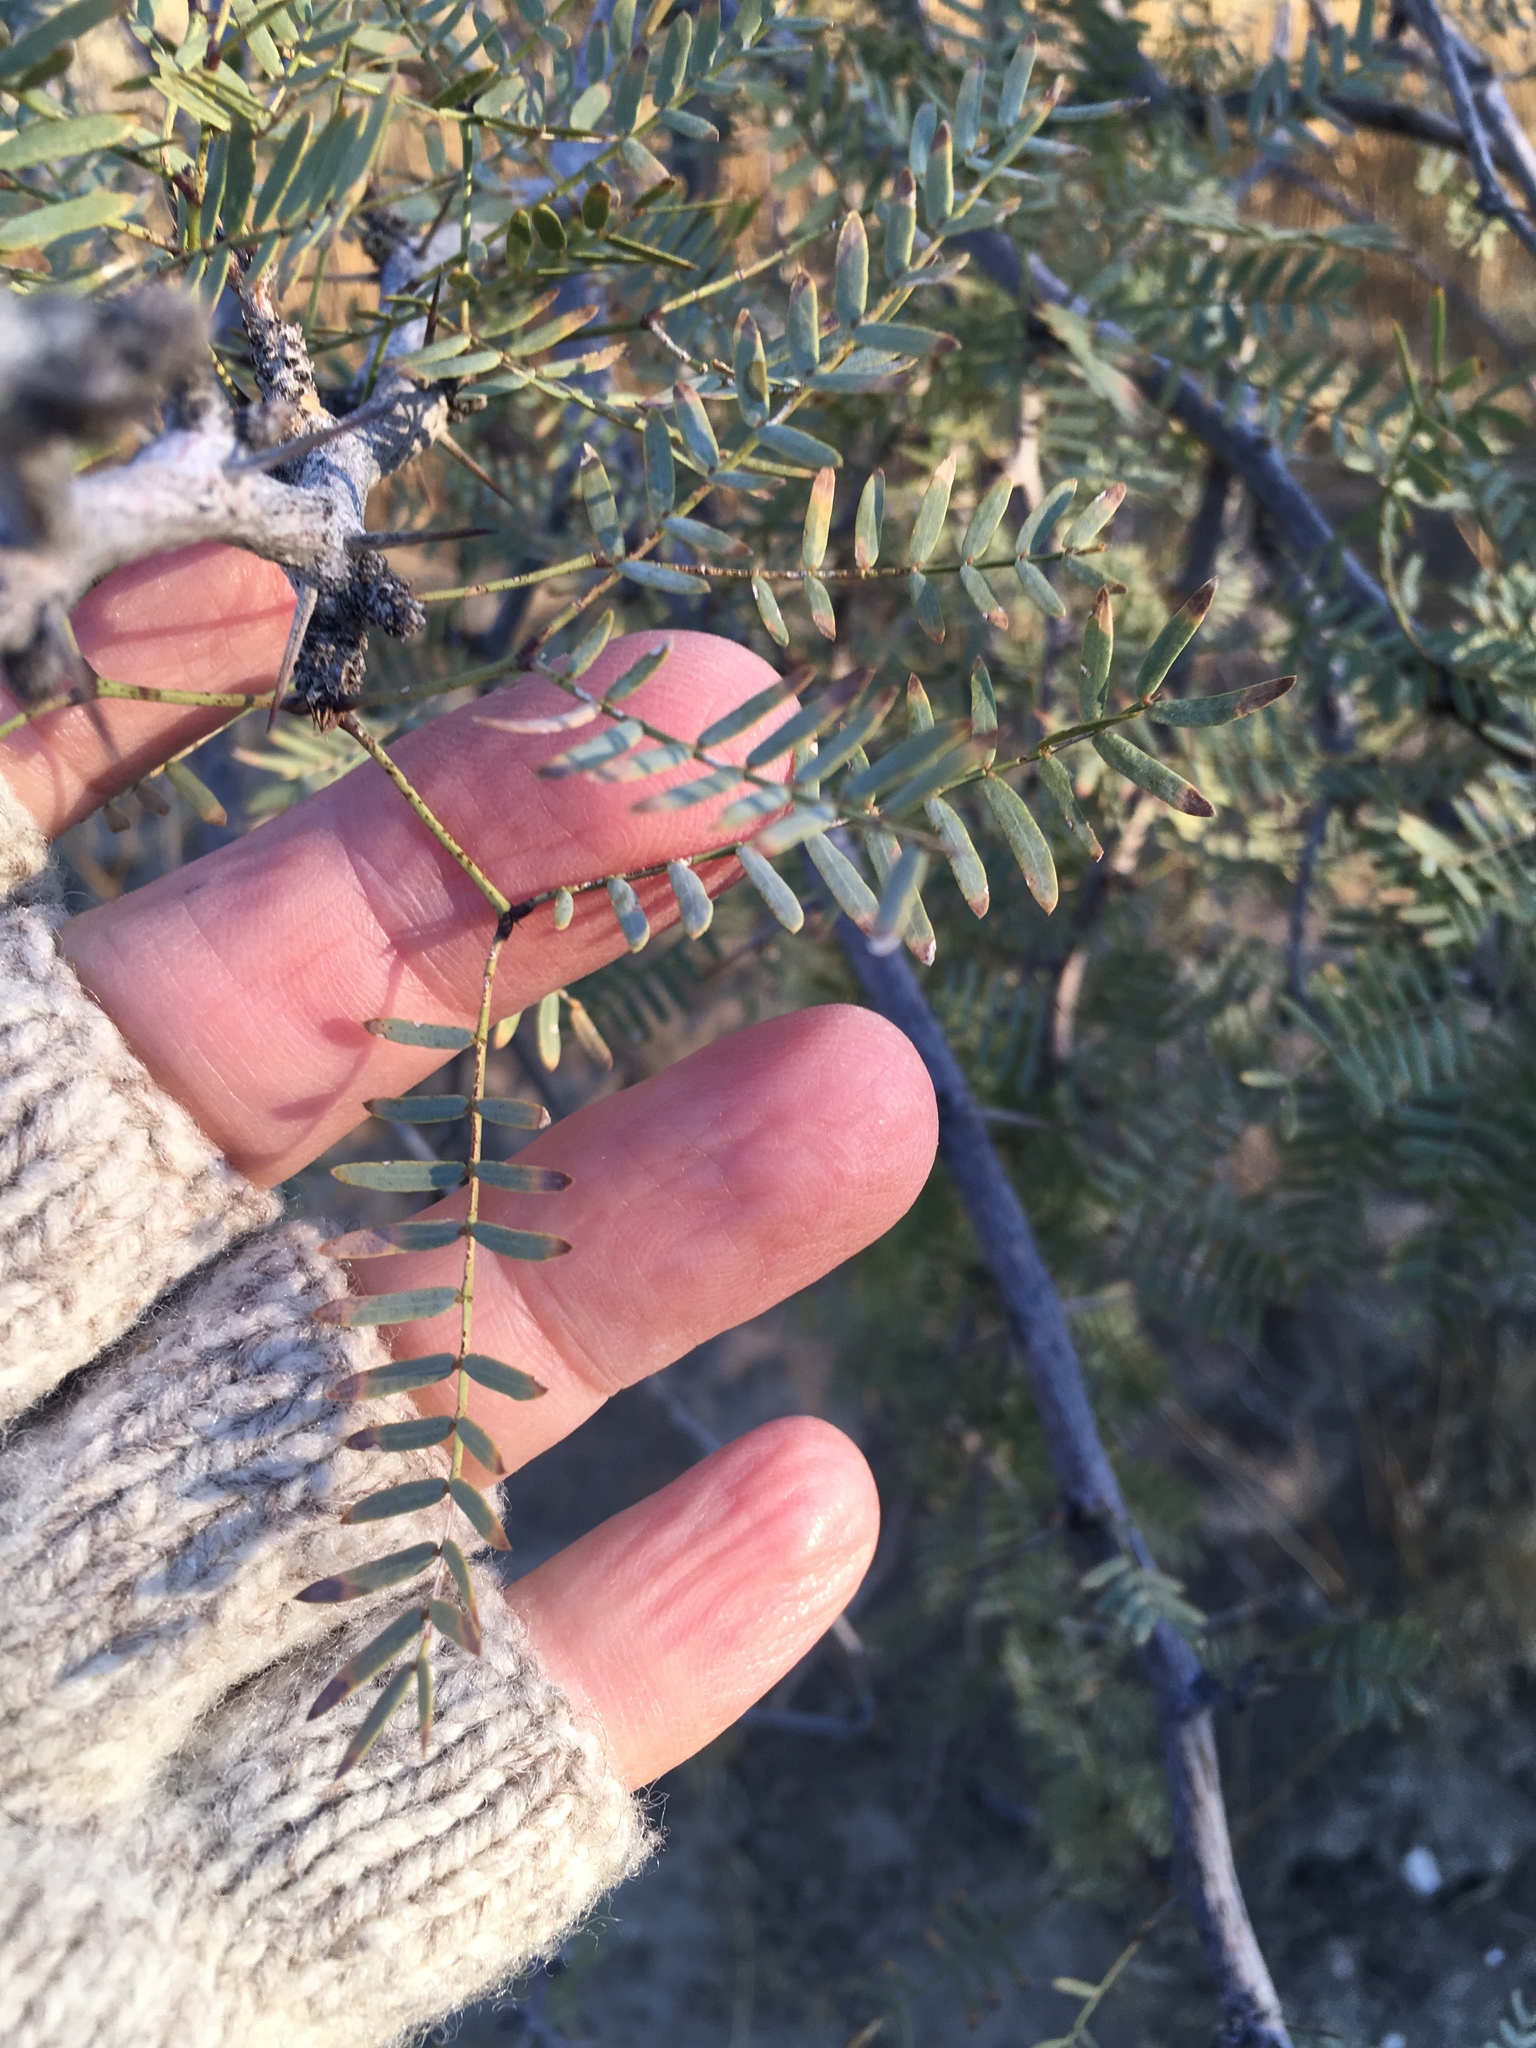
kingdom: Plantae
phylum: Tracheophyta
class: Magnoliopsida
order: Fabales
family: Fabaceae
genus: Prosopis
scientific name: Prosopis pubescens
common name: Screw-bean
